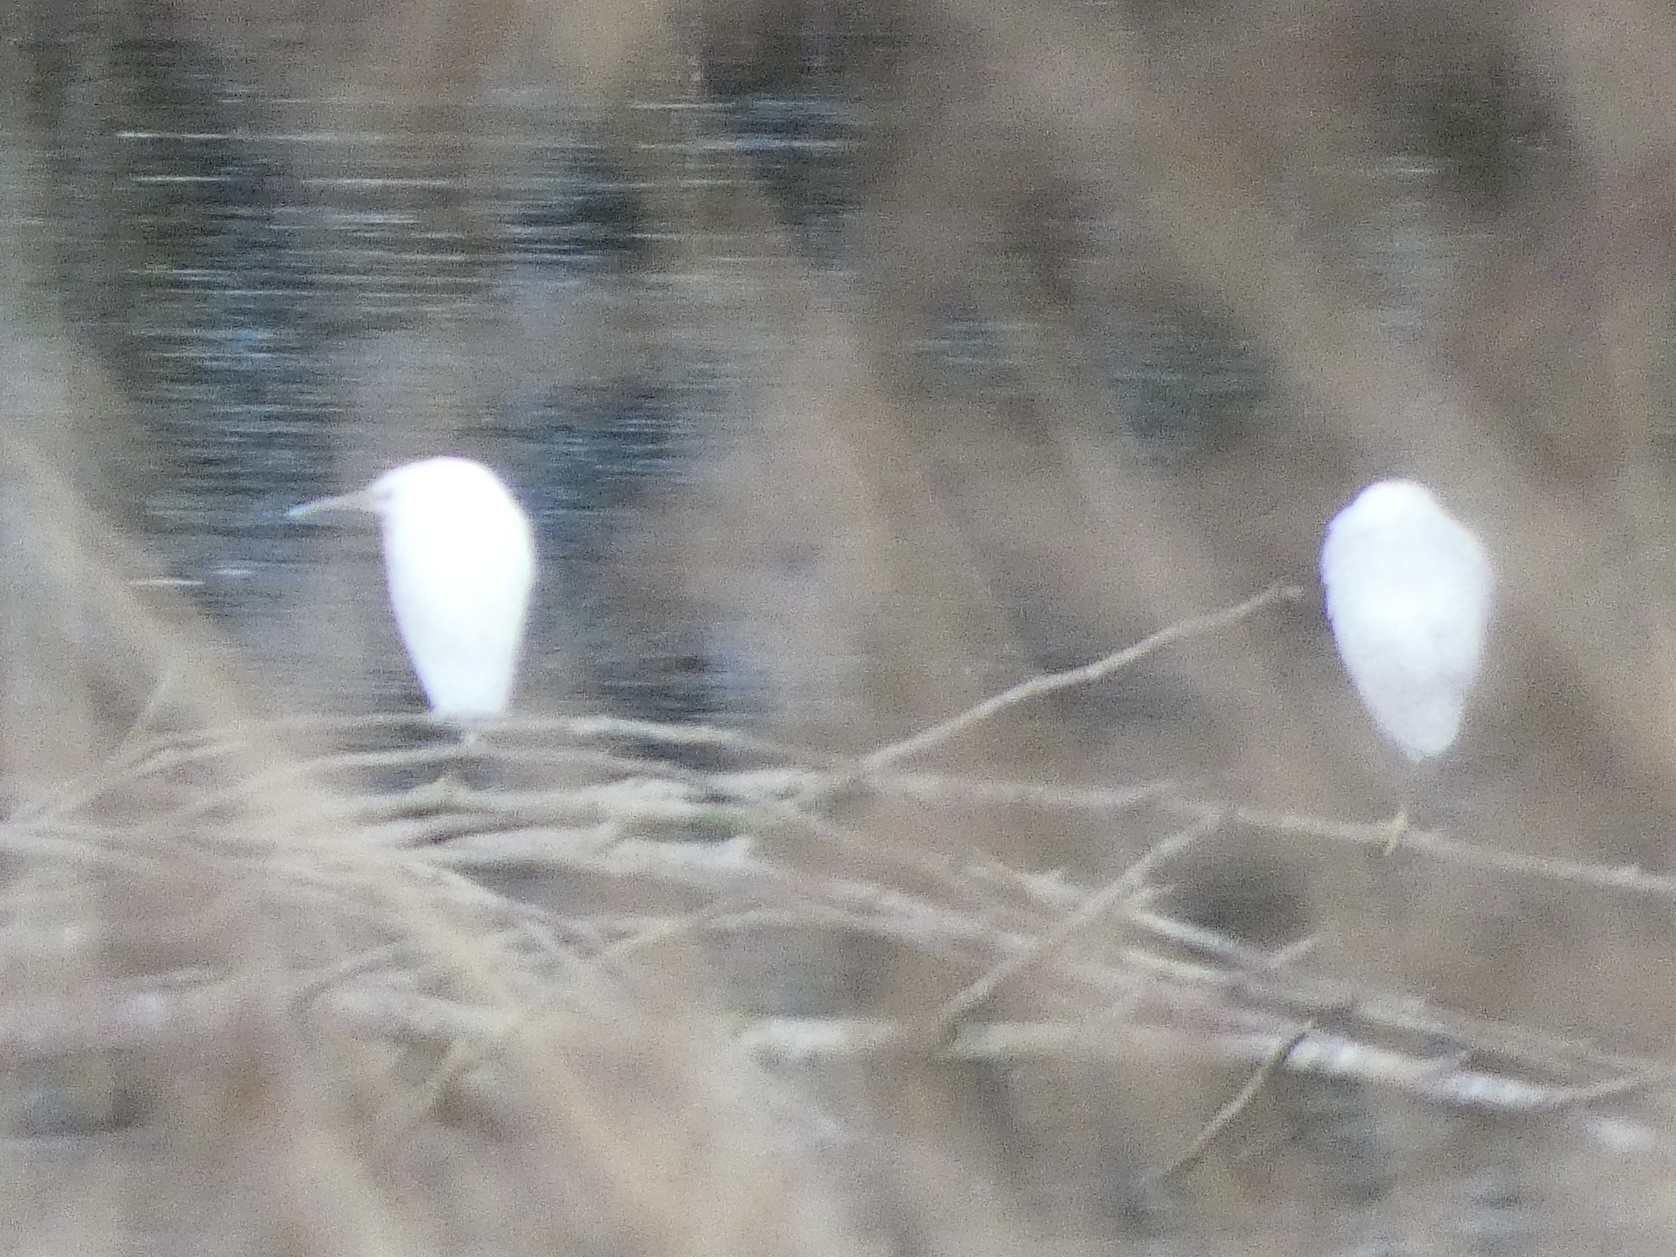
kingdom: Animalia
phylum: Chordata
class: Aves
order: Pelecaniformes
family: Ardeidae
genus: Egretta
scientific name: Egretta garzetta
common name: Little egret
